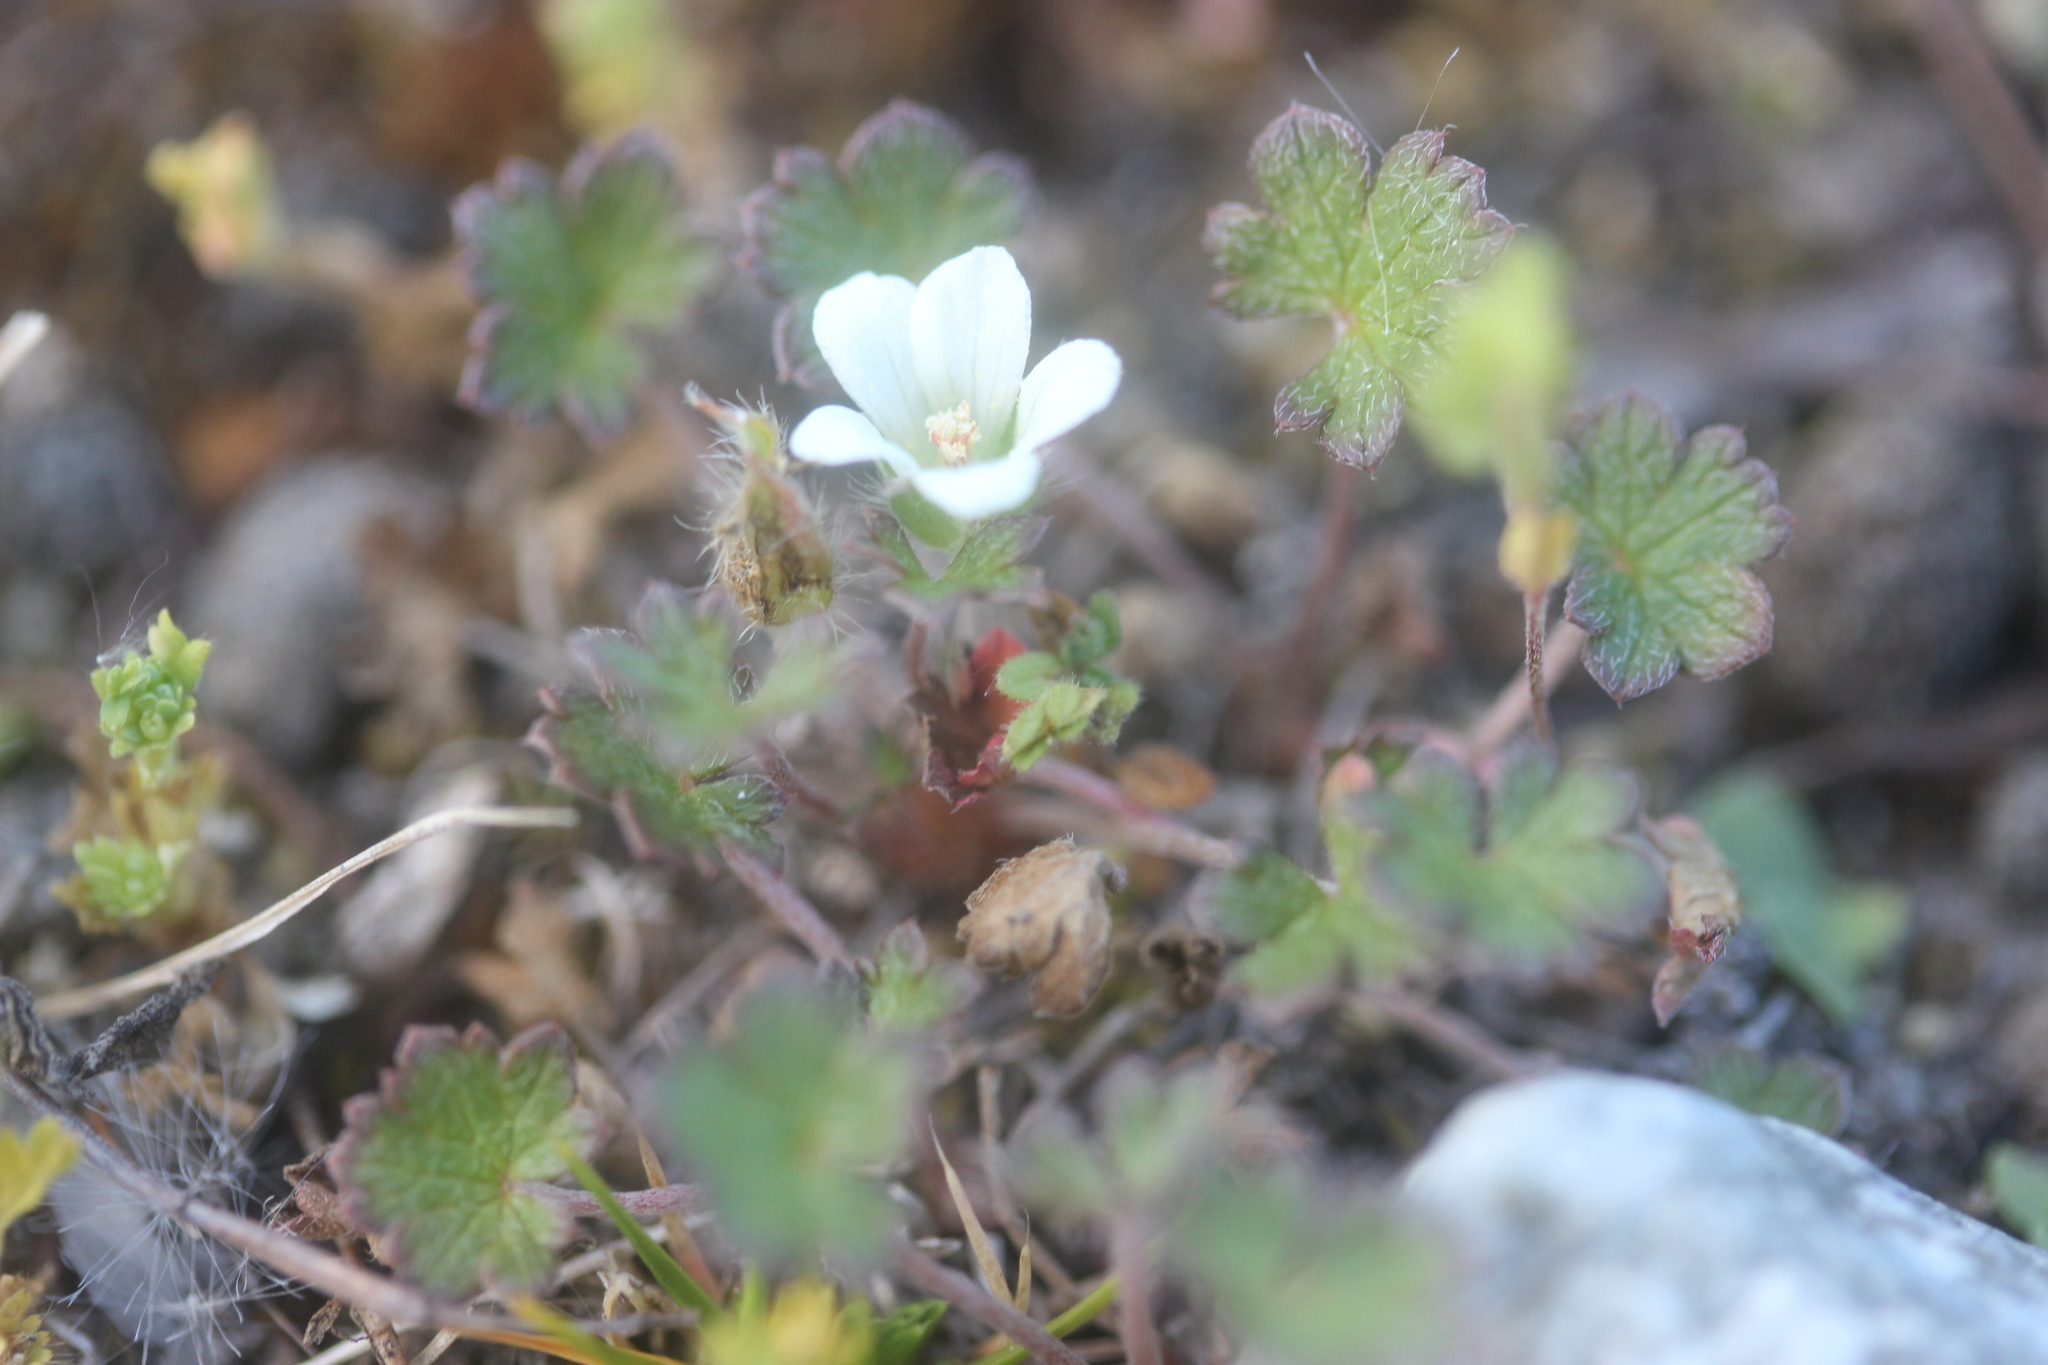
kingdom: Plantae
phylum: Tracheophyta
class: Magnoliopsida
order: Geraniales
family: Geraniaceae
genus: Geranium
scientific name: Geranium brevicaule
